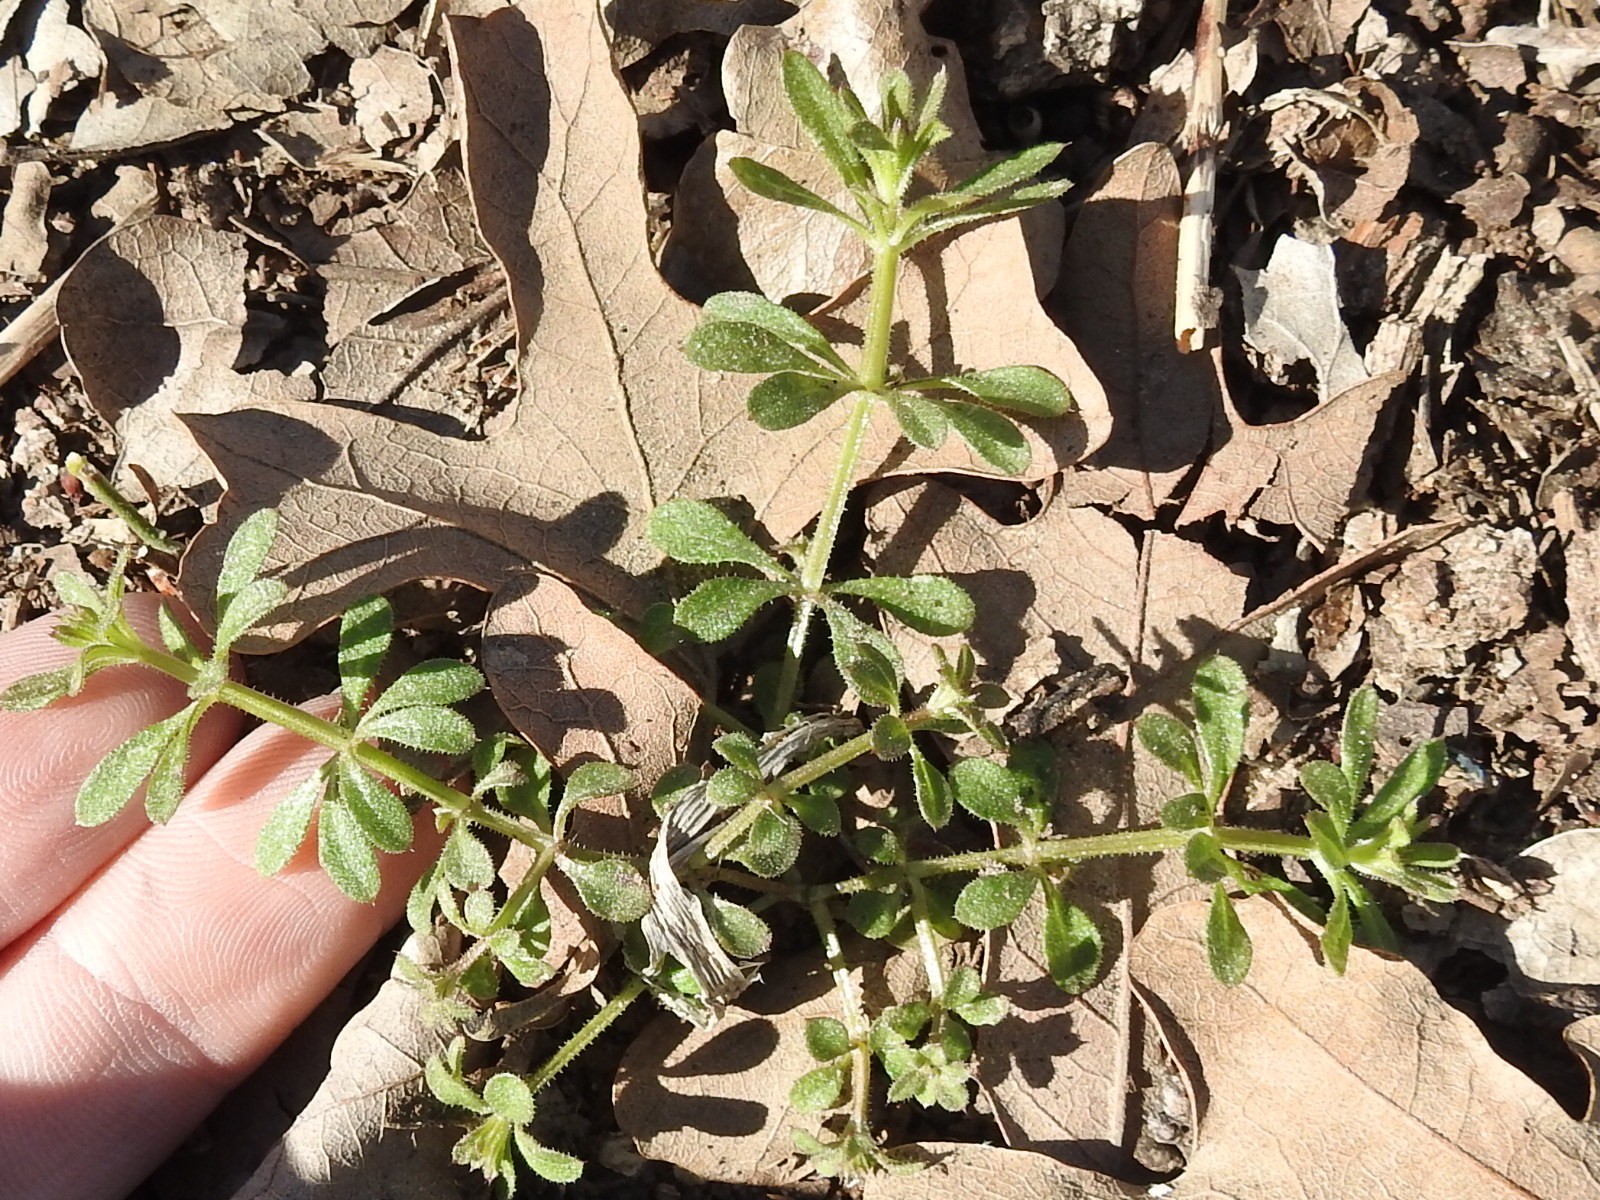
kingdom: Plantae
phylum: Tracheophyta
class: Magnoliopsida
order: Gentianales
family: Rubiaceae
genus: Galium
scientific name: Galium aparine
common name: Cleavers
